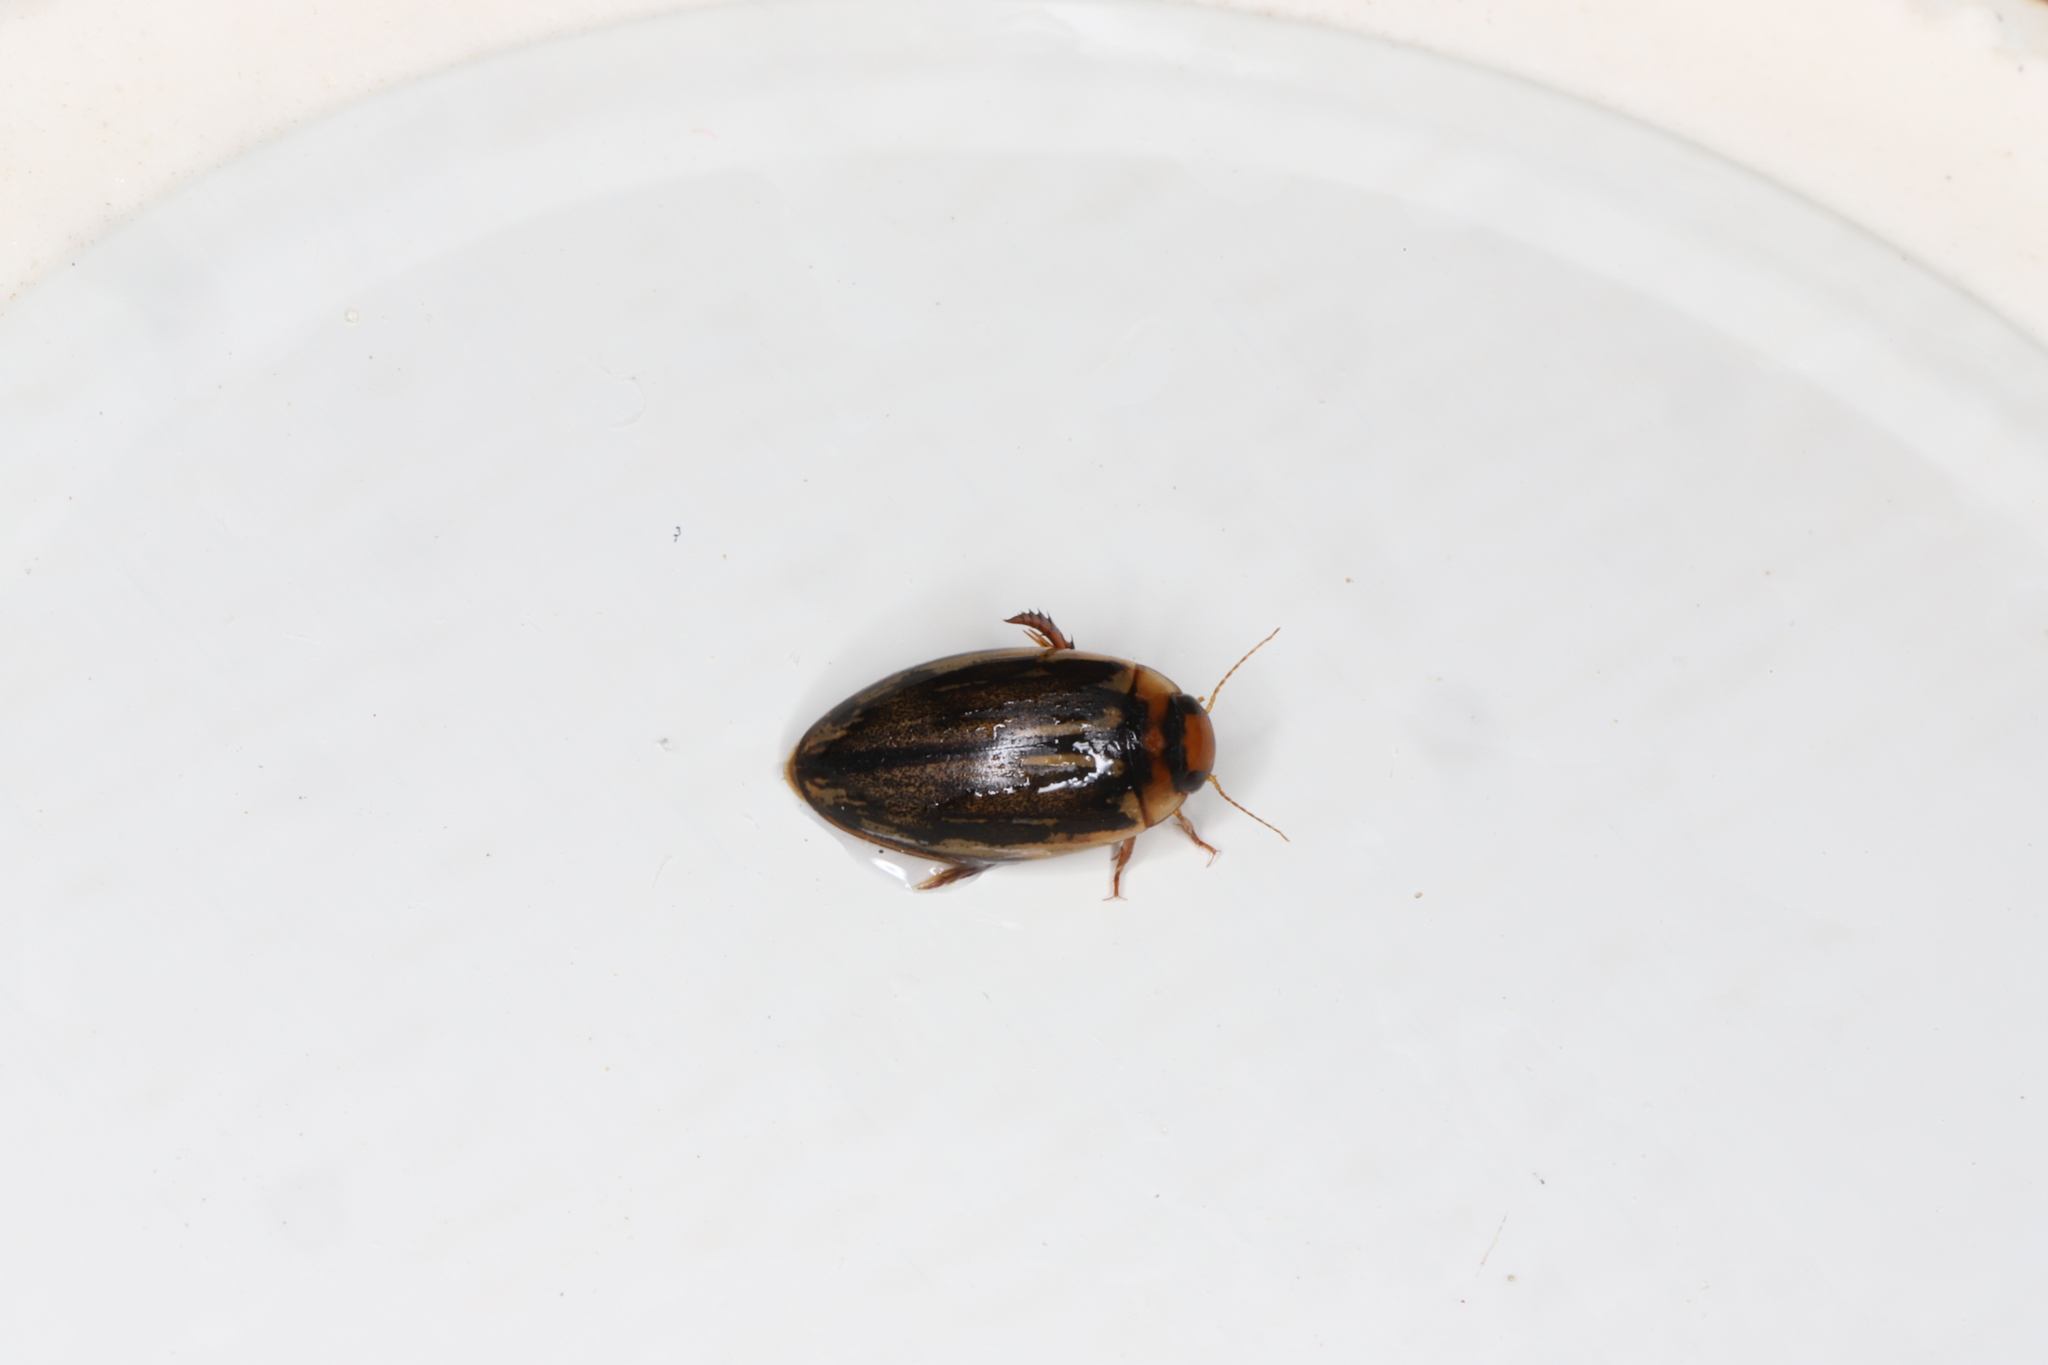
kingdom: Animalia
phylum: Arthropoda
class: Insecta
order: Coleoptera
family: Dytiscidae
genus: Coptotomus
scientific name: Coptotomus longulus
